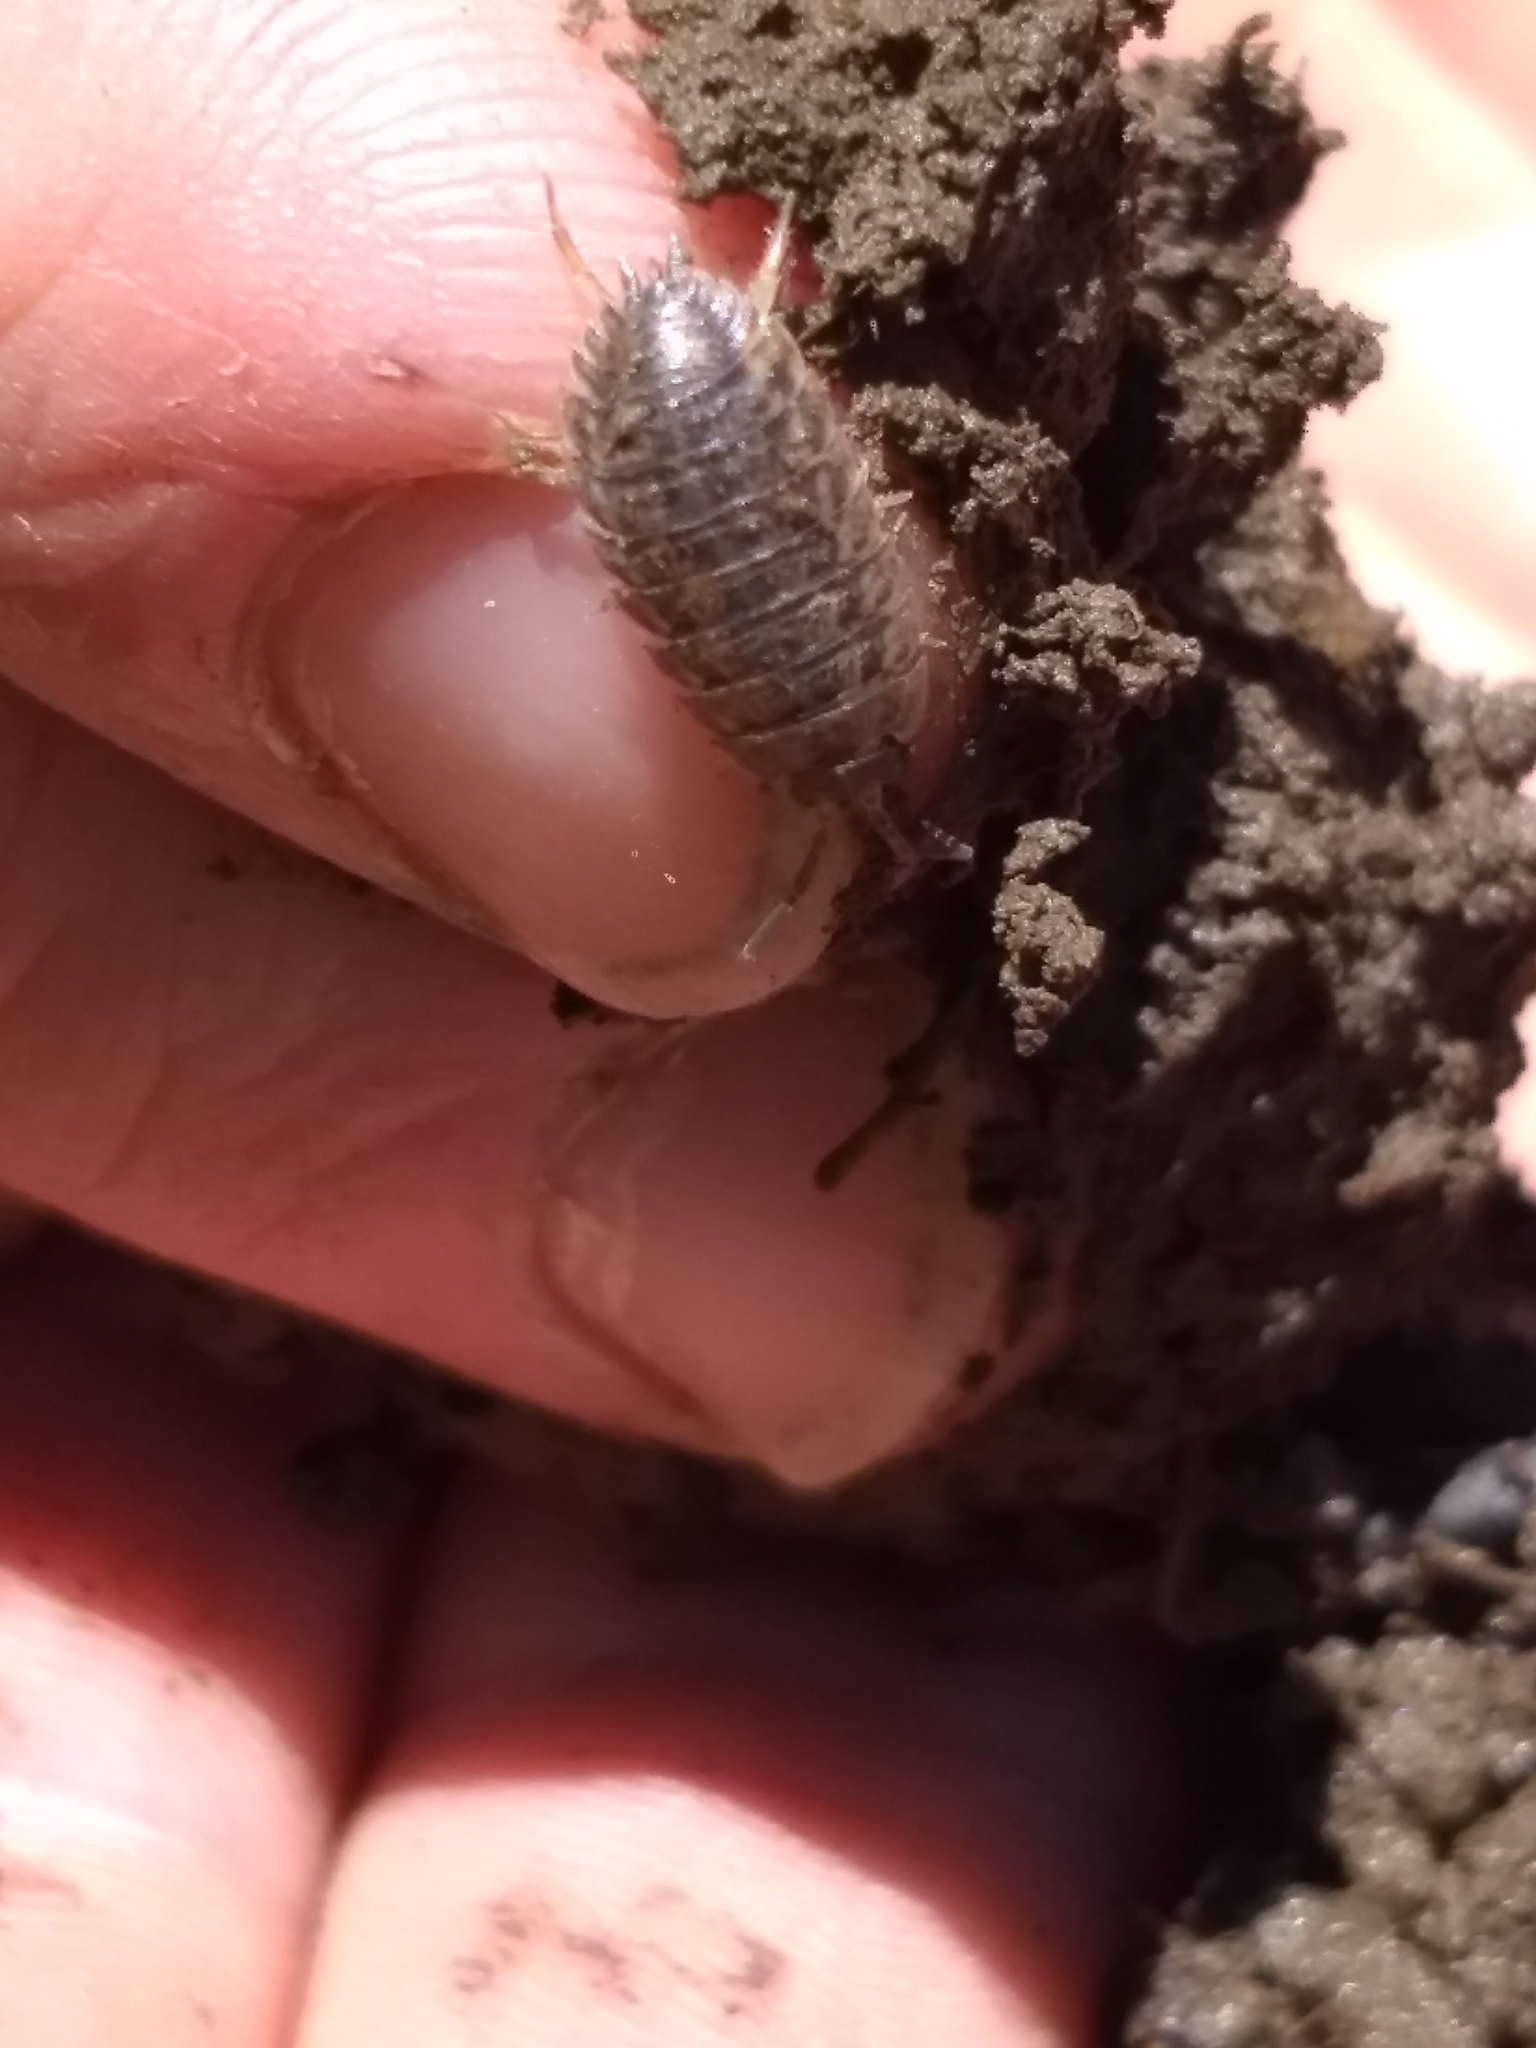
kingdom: Animalia
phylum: Arthropoda
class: Malacostraca
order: Isopoda
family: Trachelipodidae
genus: Trachelipus
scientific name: Trachelipus rathkii
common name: Isopod
